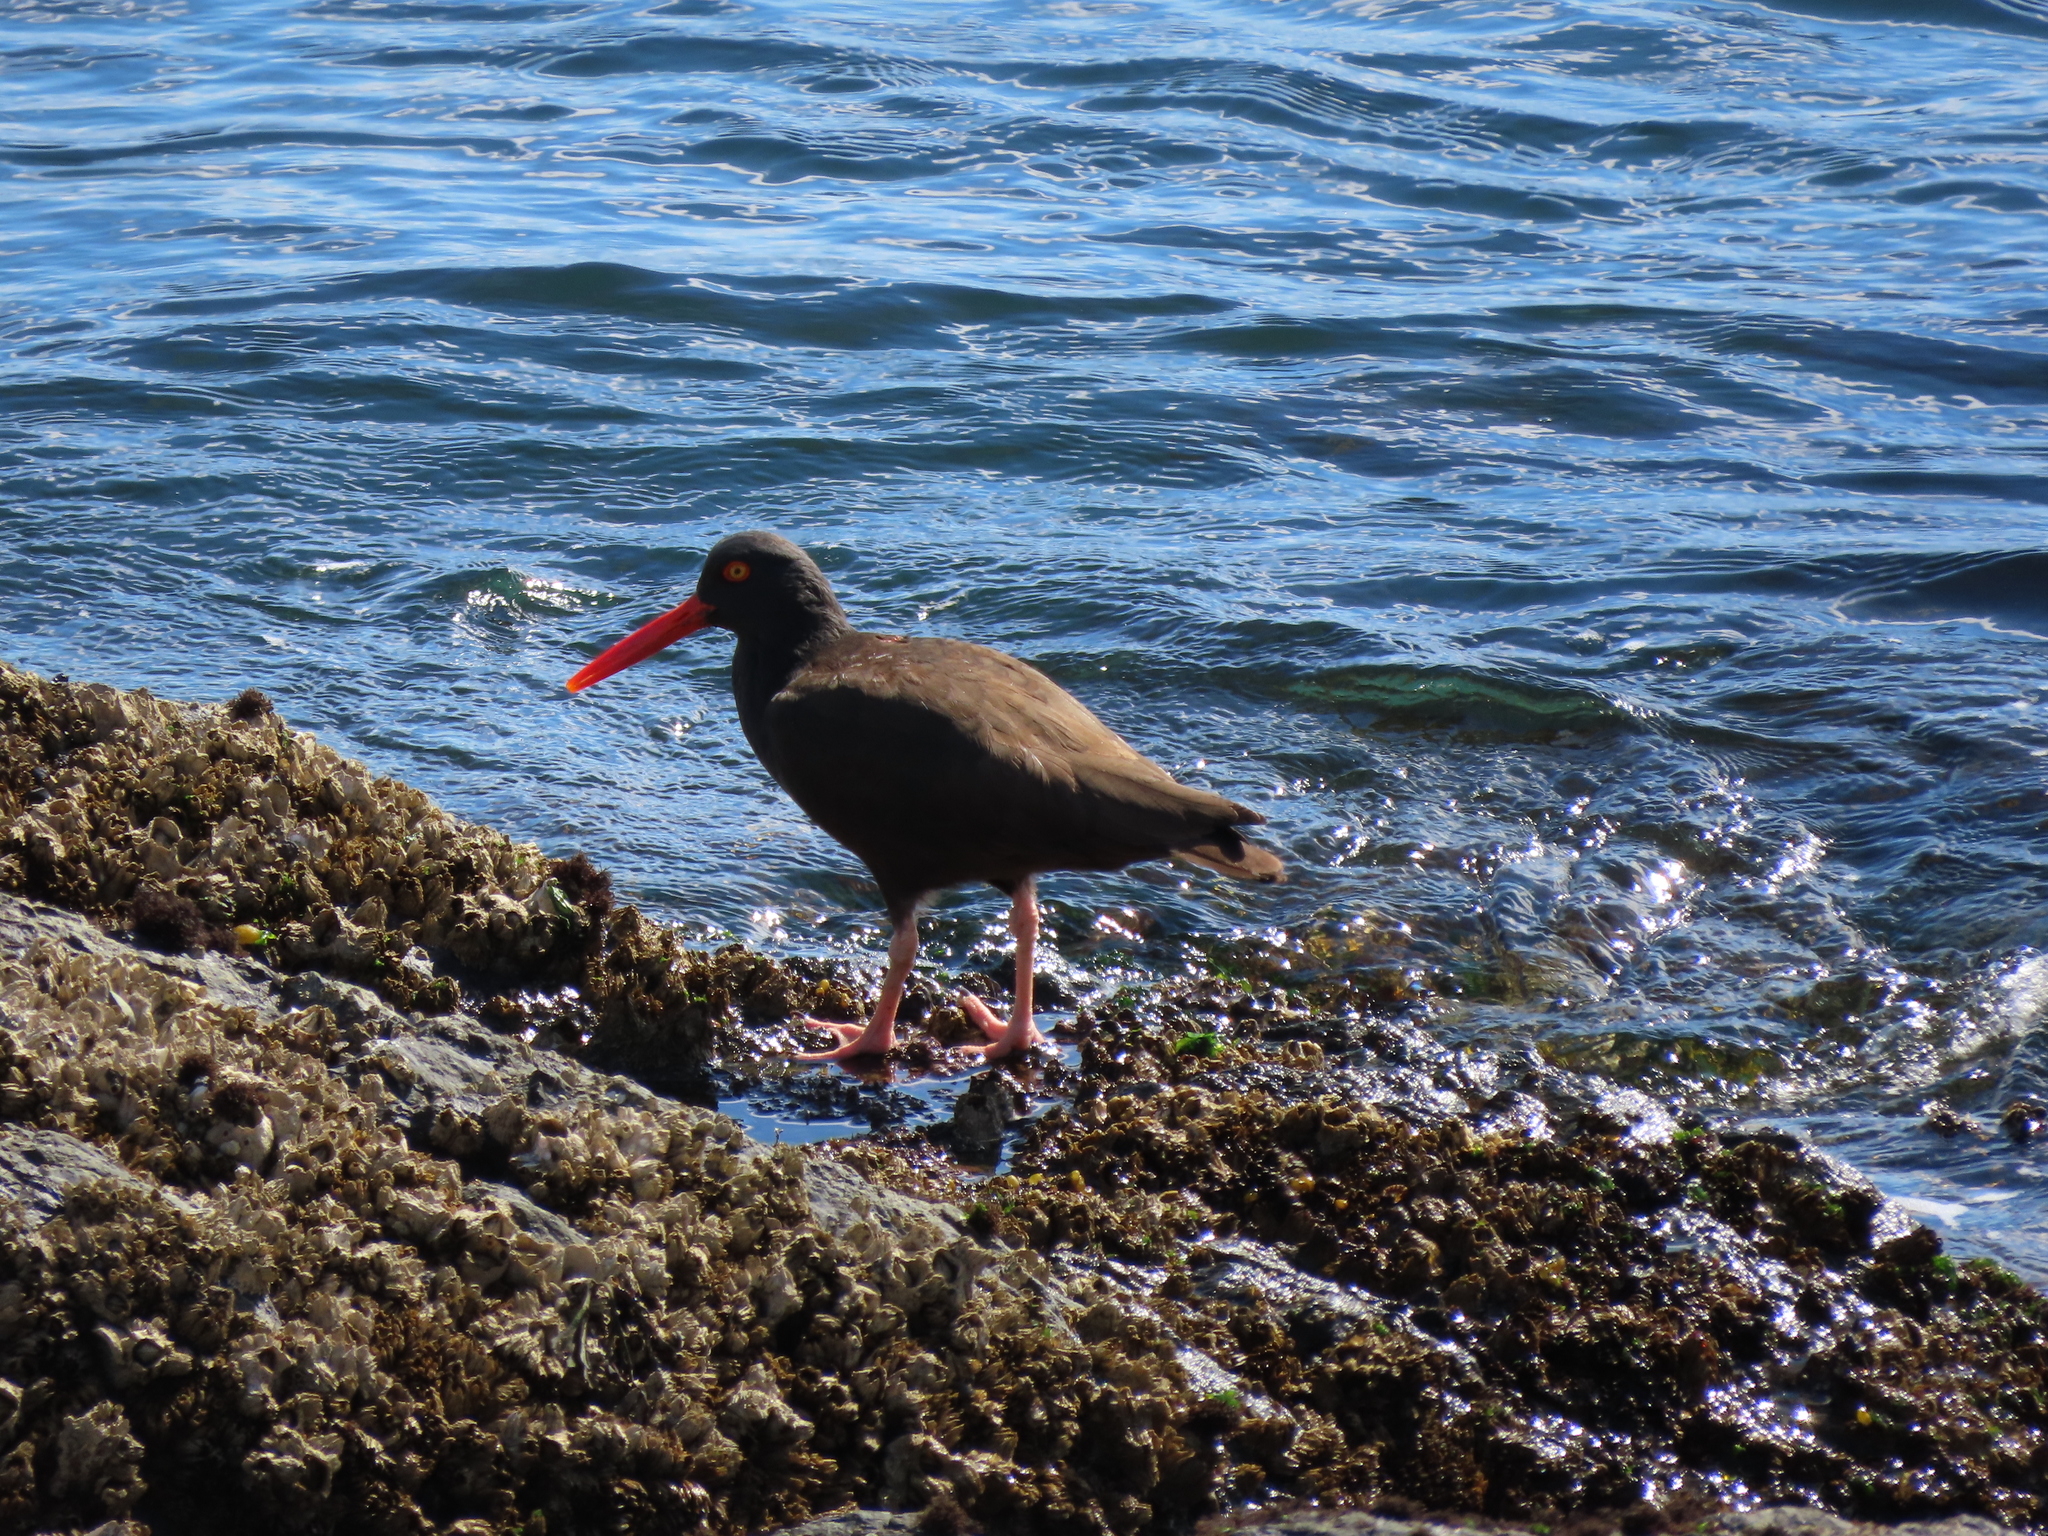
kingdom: Animalia
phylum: Chordata
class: Aves
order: Charadriiformes
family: Haematopodidae
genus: Haematopus
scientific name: Haematopus bachmani
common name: Black oystercatcher
